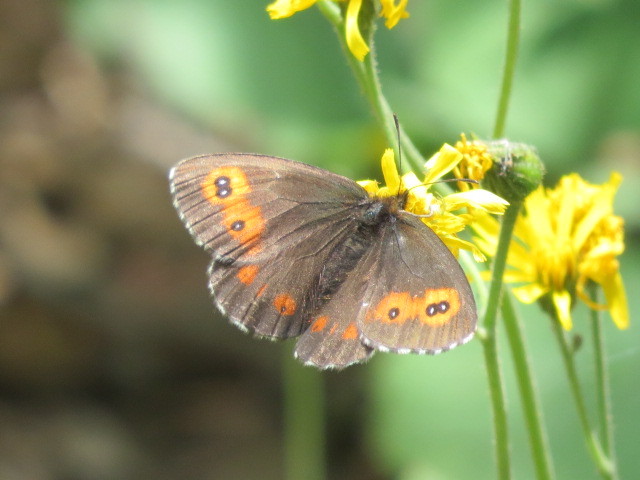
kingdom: Animalia
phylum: Arthropoda
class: Insecta
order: Lepidoptera
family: Nymphalidae
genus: Erebia
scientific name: Erebia euryale
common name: Large ringlet
